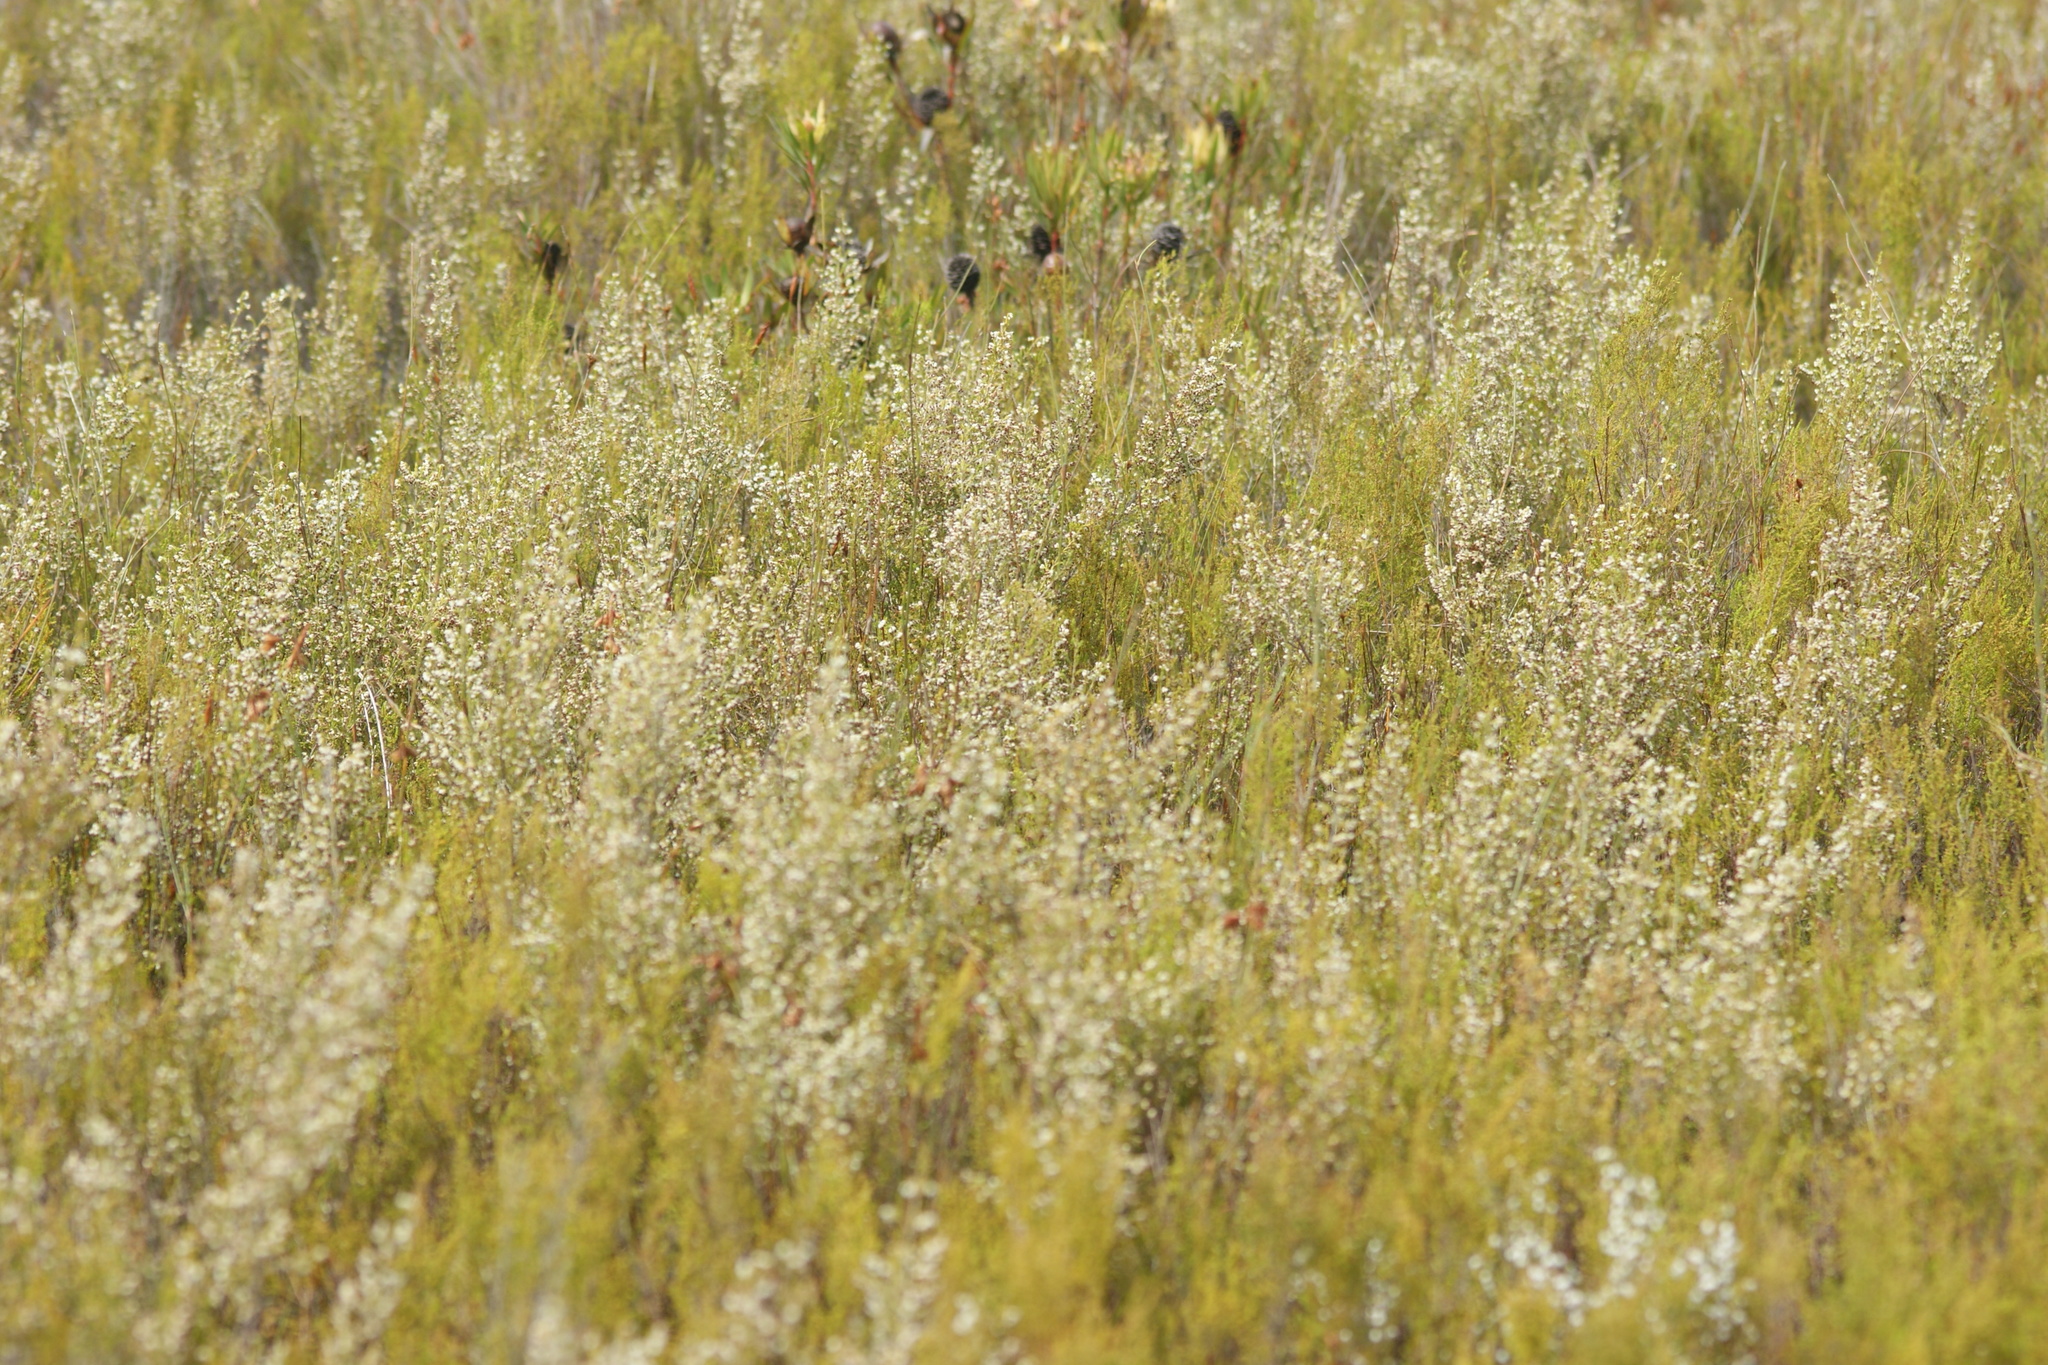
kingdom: Plantae
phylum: Tracheophyta
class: Magnoliopsida
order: Ericales
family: Ericaceae
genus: Erica
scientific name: Erica imbricata
